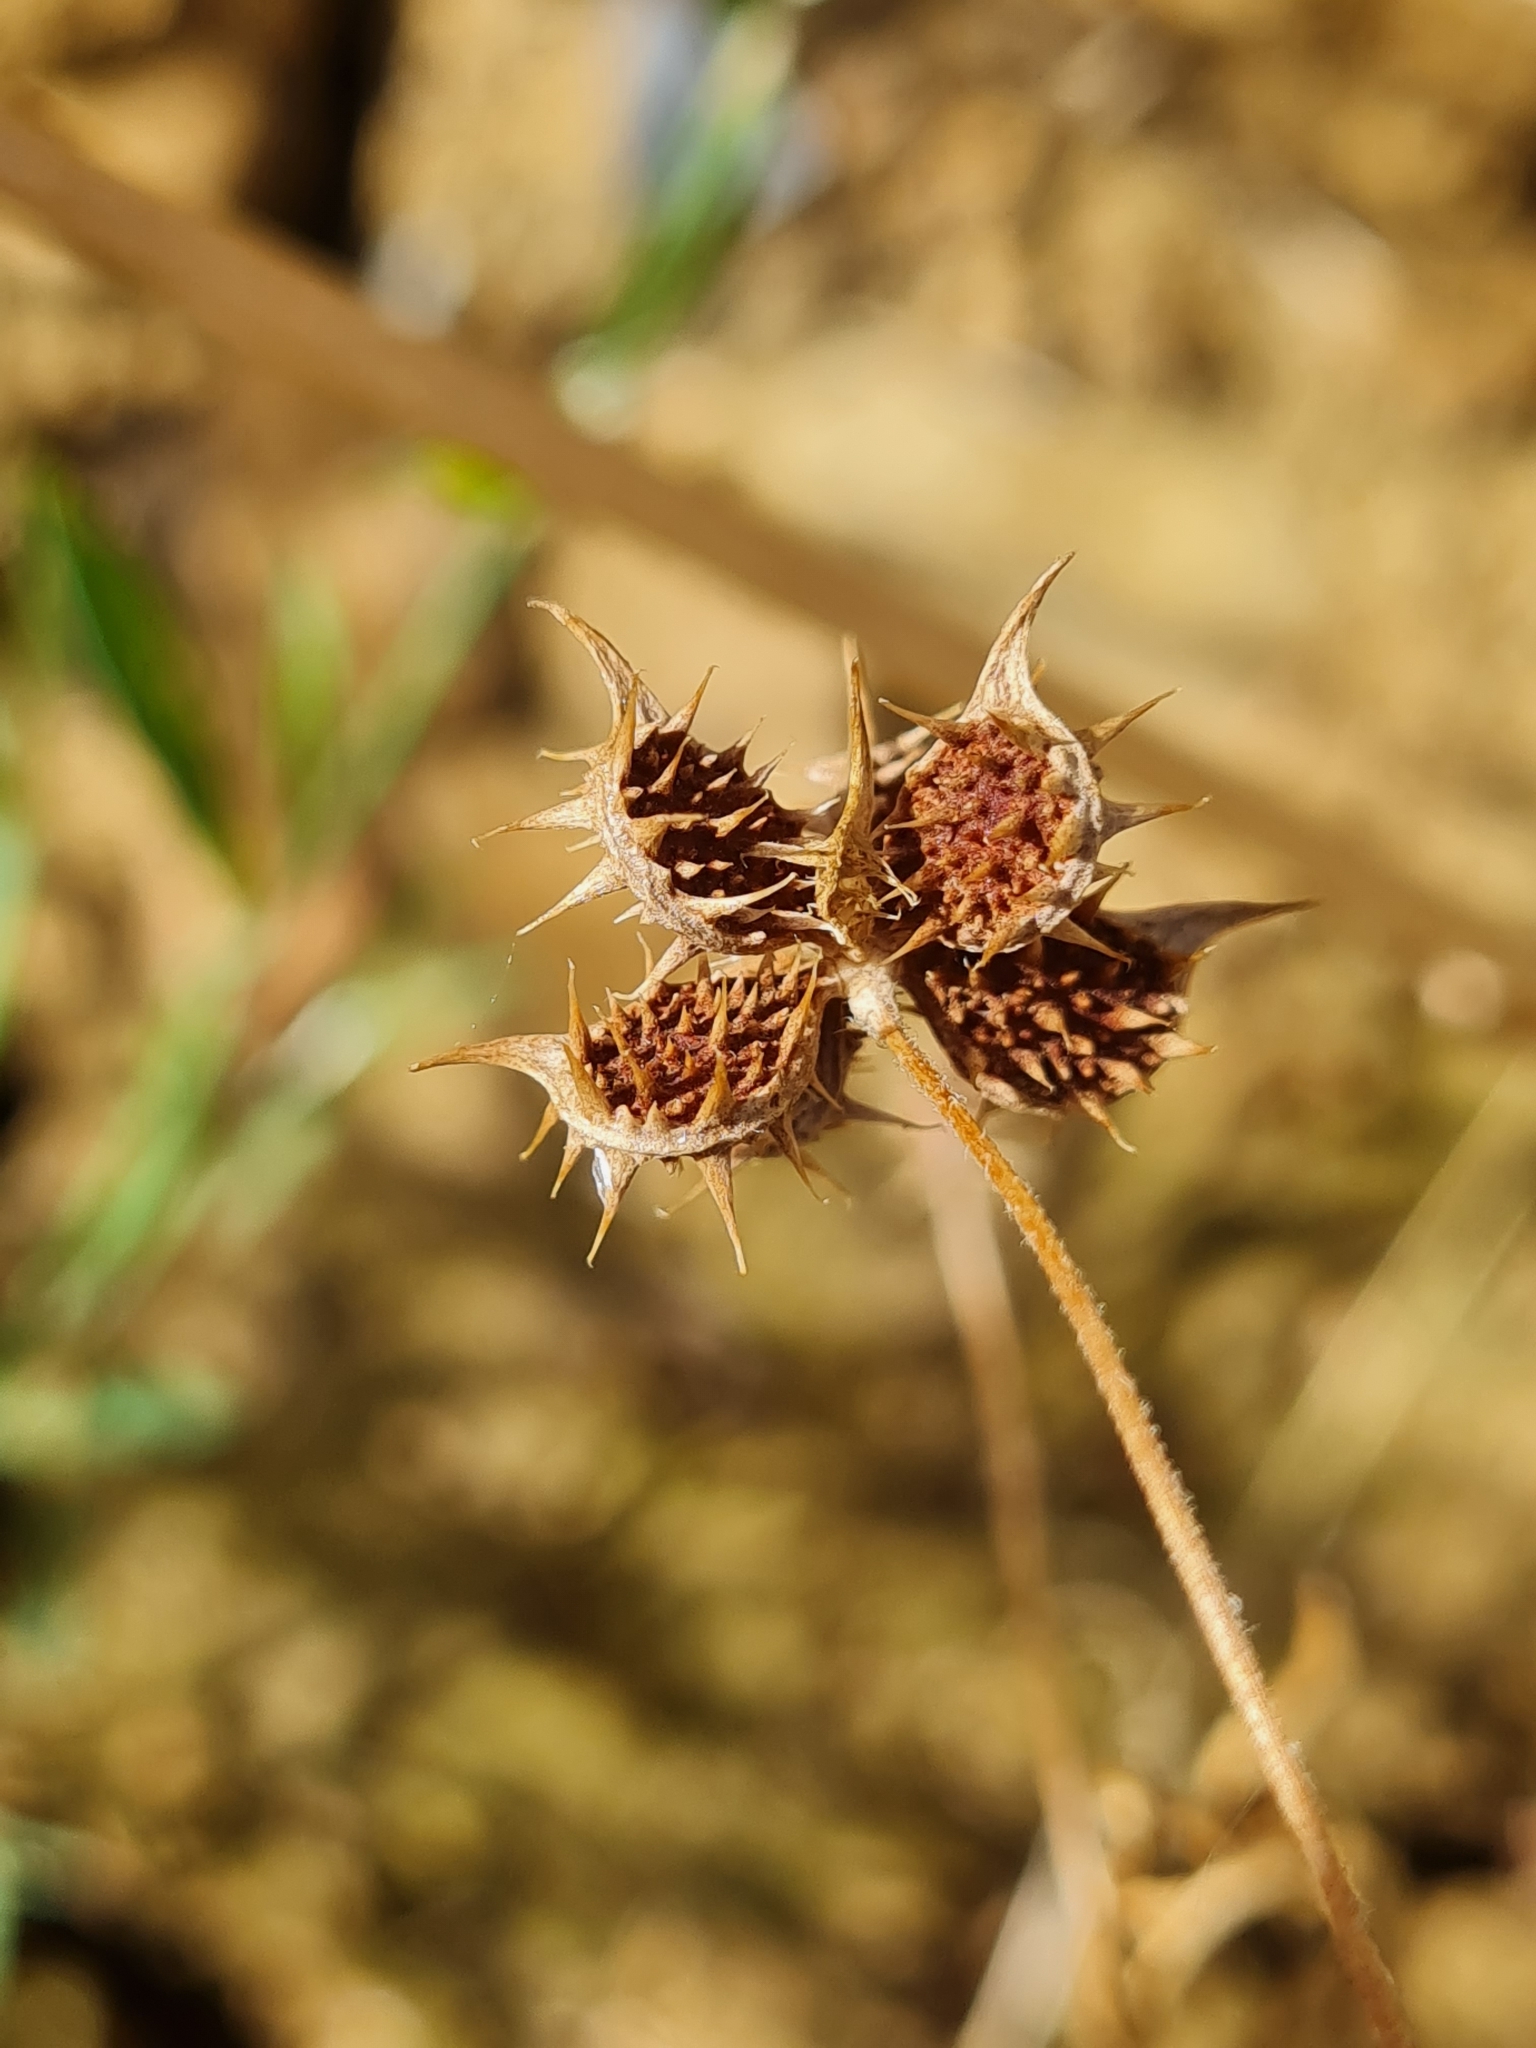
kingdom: Plantae
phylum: Tracheophyta
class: Magnoliopsida
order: Ranunculales
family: Ranunculaceae
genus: Ranunculus
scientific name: Ranunculus arvensis
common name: Corn buttercup
